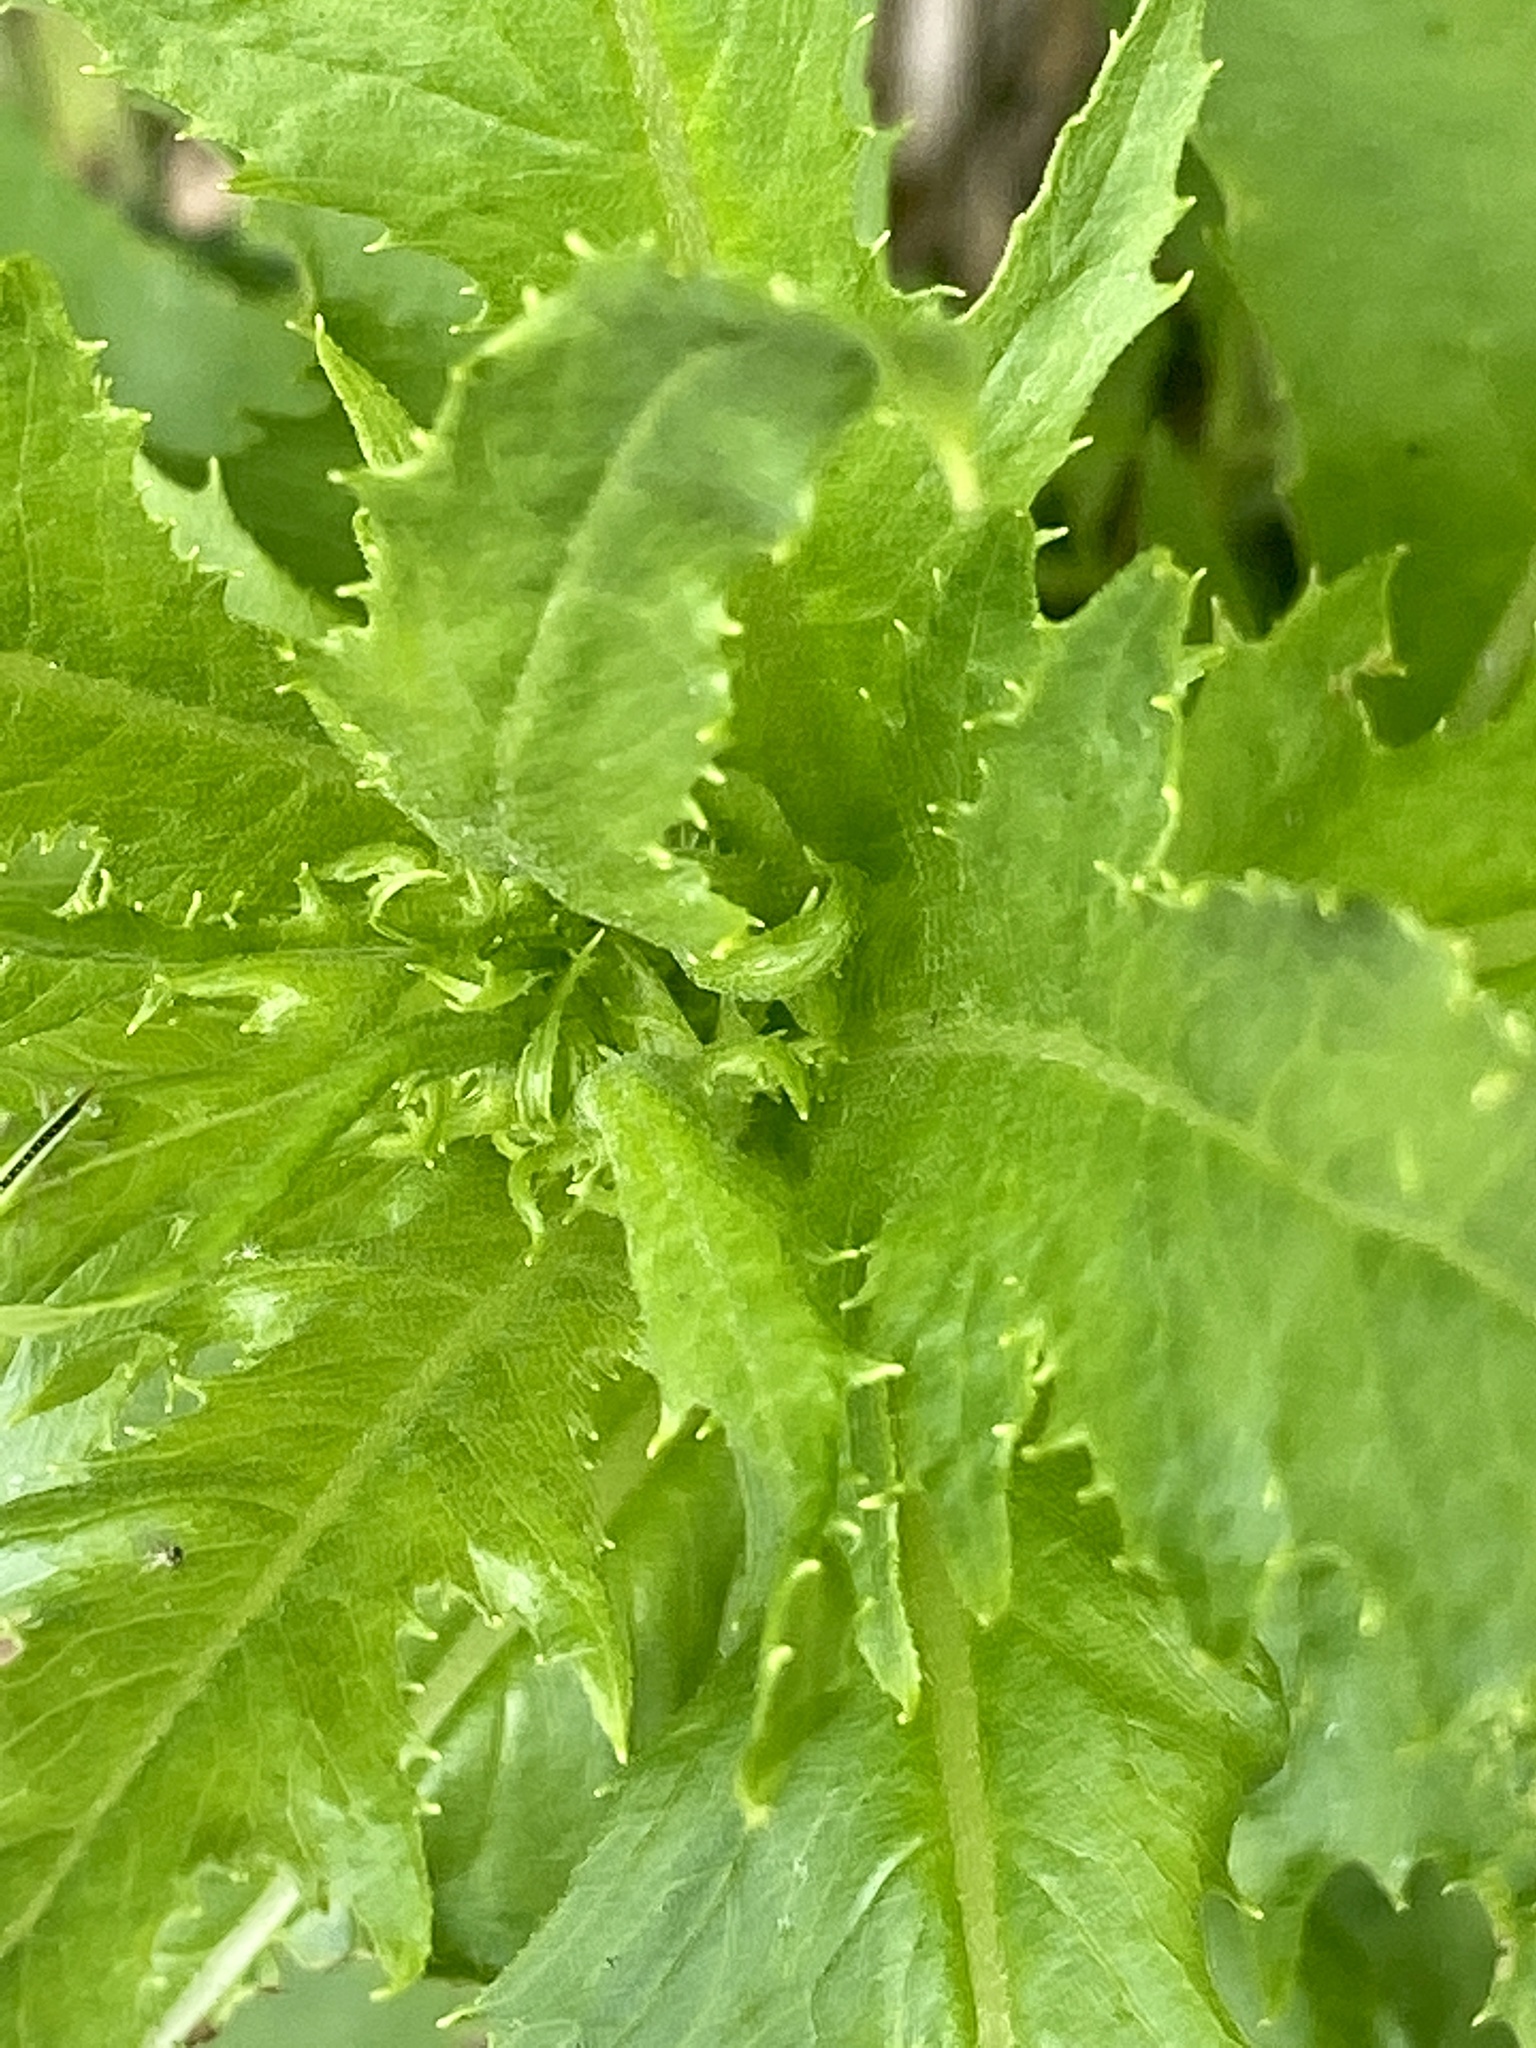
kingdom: Plantae
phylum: Tracheophyta
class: Magnoliopsida
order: Asterales
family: Asteraceae
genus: Erechtites
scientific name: Erechtites hieraciifolius
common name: American burnweed
